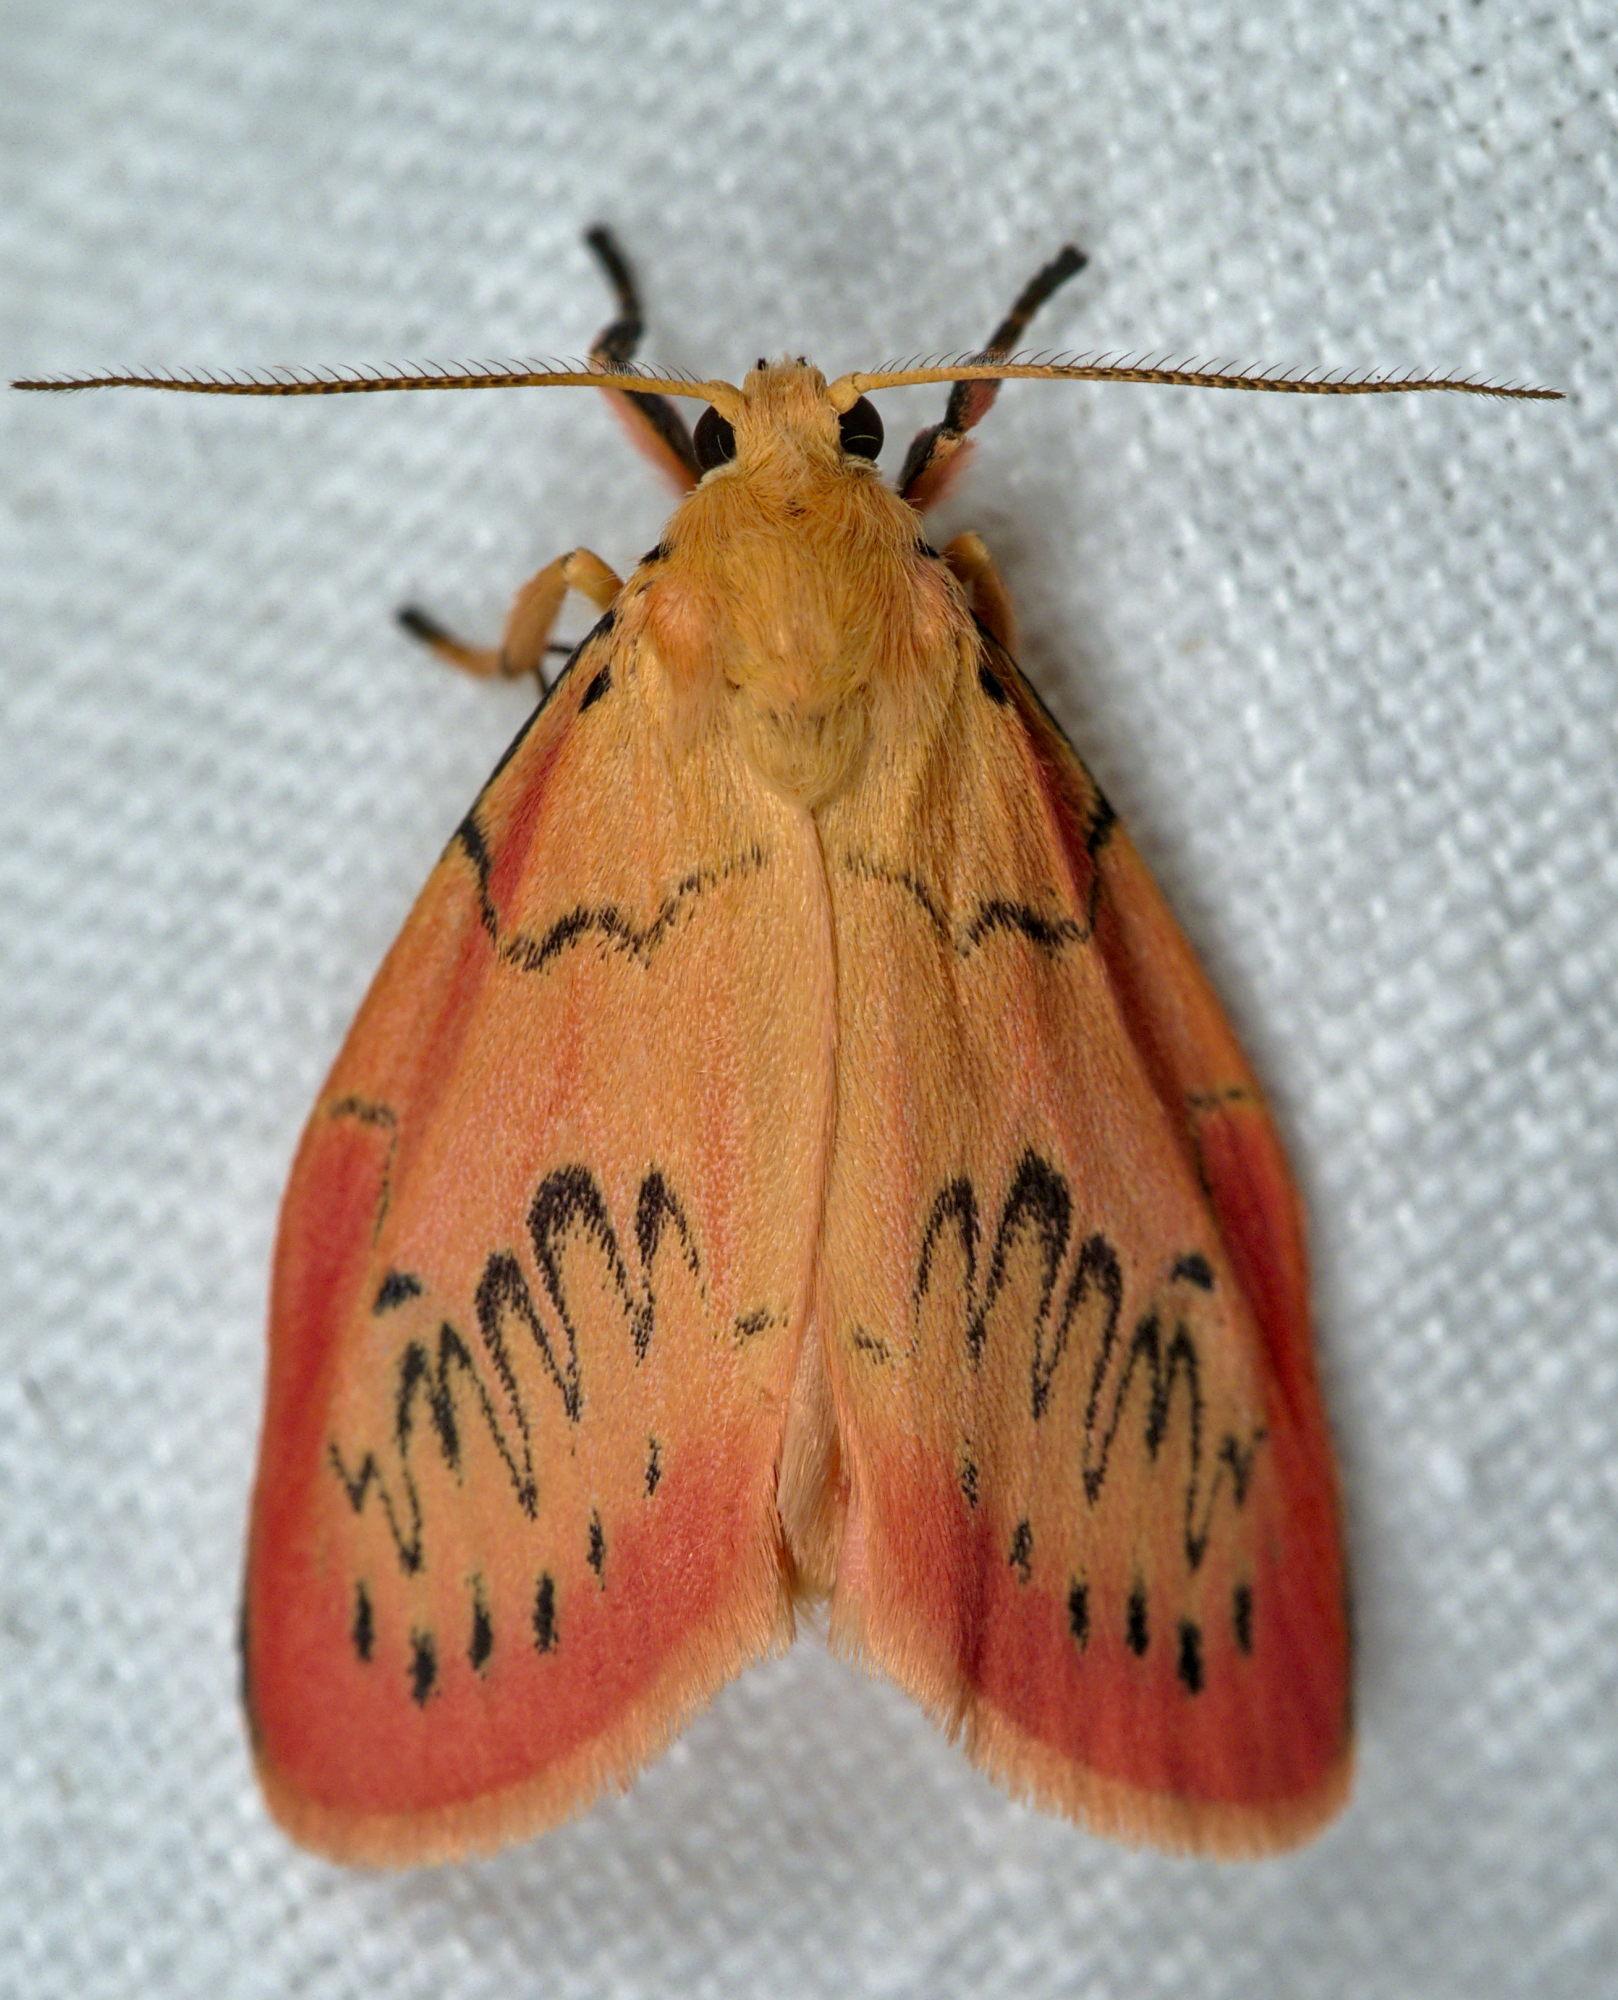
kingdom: Animalia
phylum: Arthropoda
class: Insecta
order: Lepidoptera
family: Erebidae
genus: Miltochrista
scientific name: Miltochrista miniata
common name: Rosy footman
